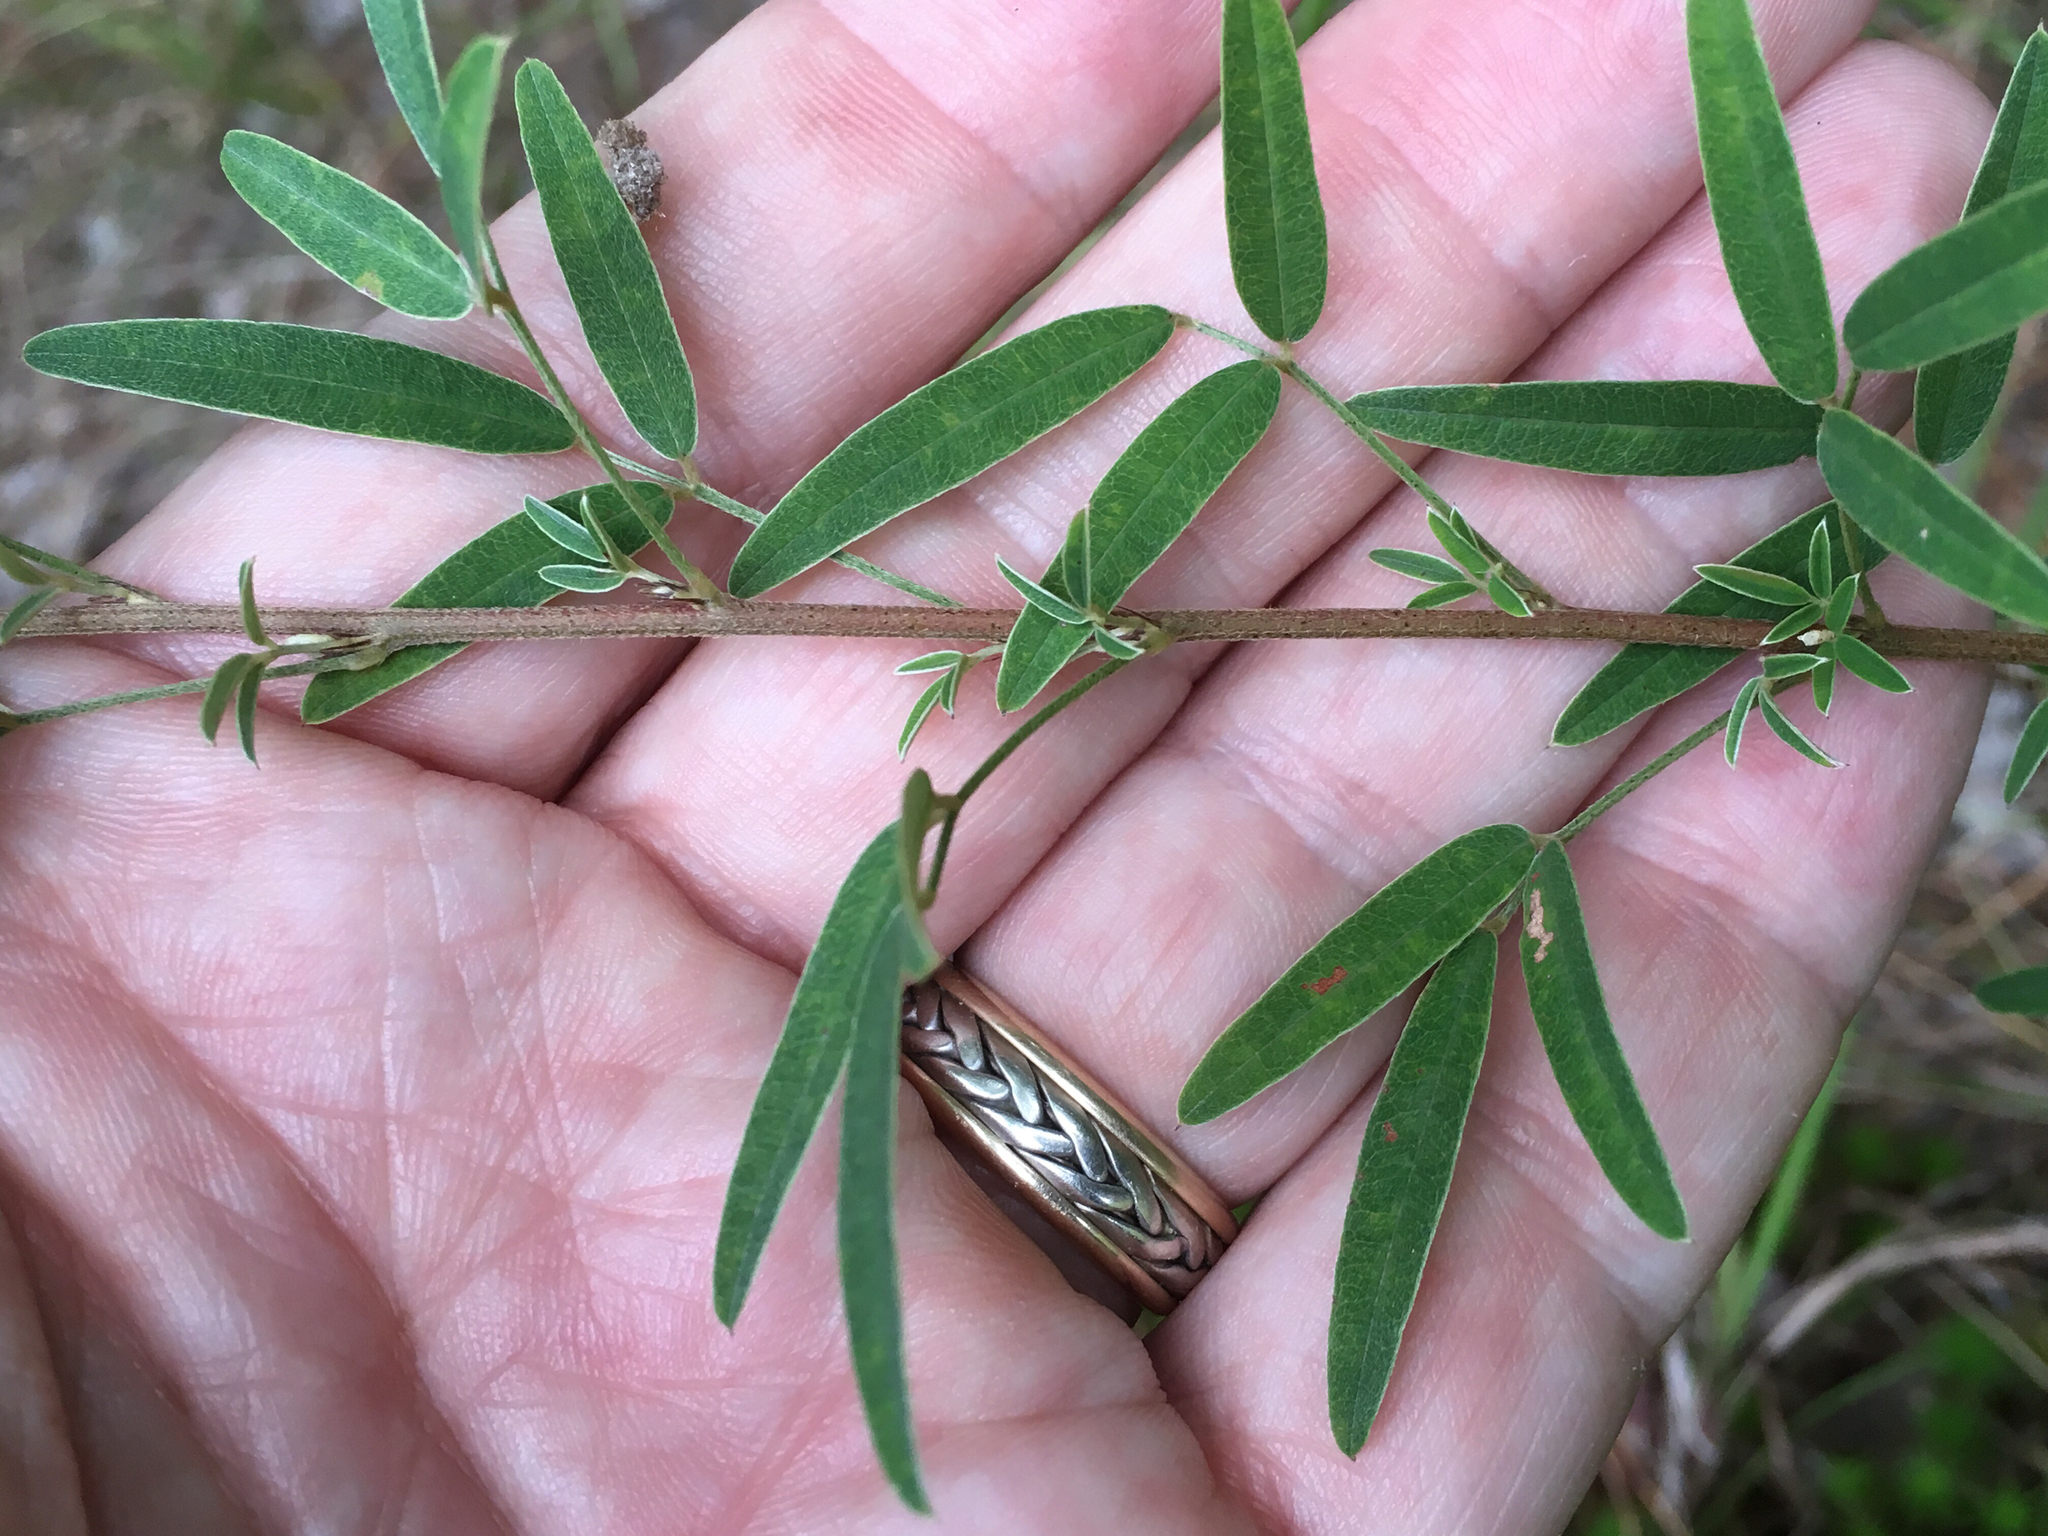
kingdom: Plantae
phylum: Tracheophyta
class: Magnoliopsida
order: Fabales
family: Fabaceae
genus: Lespedeza
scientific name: Lespedeza virginica
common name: Slender bush-clover
